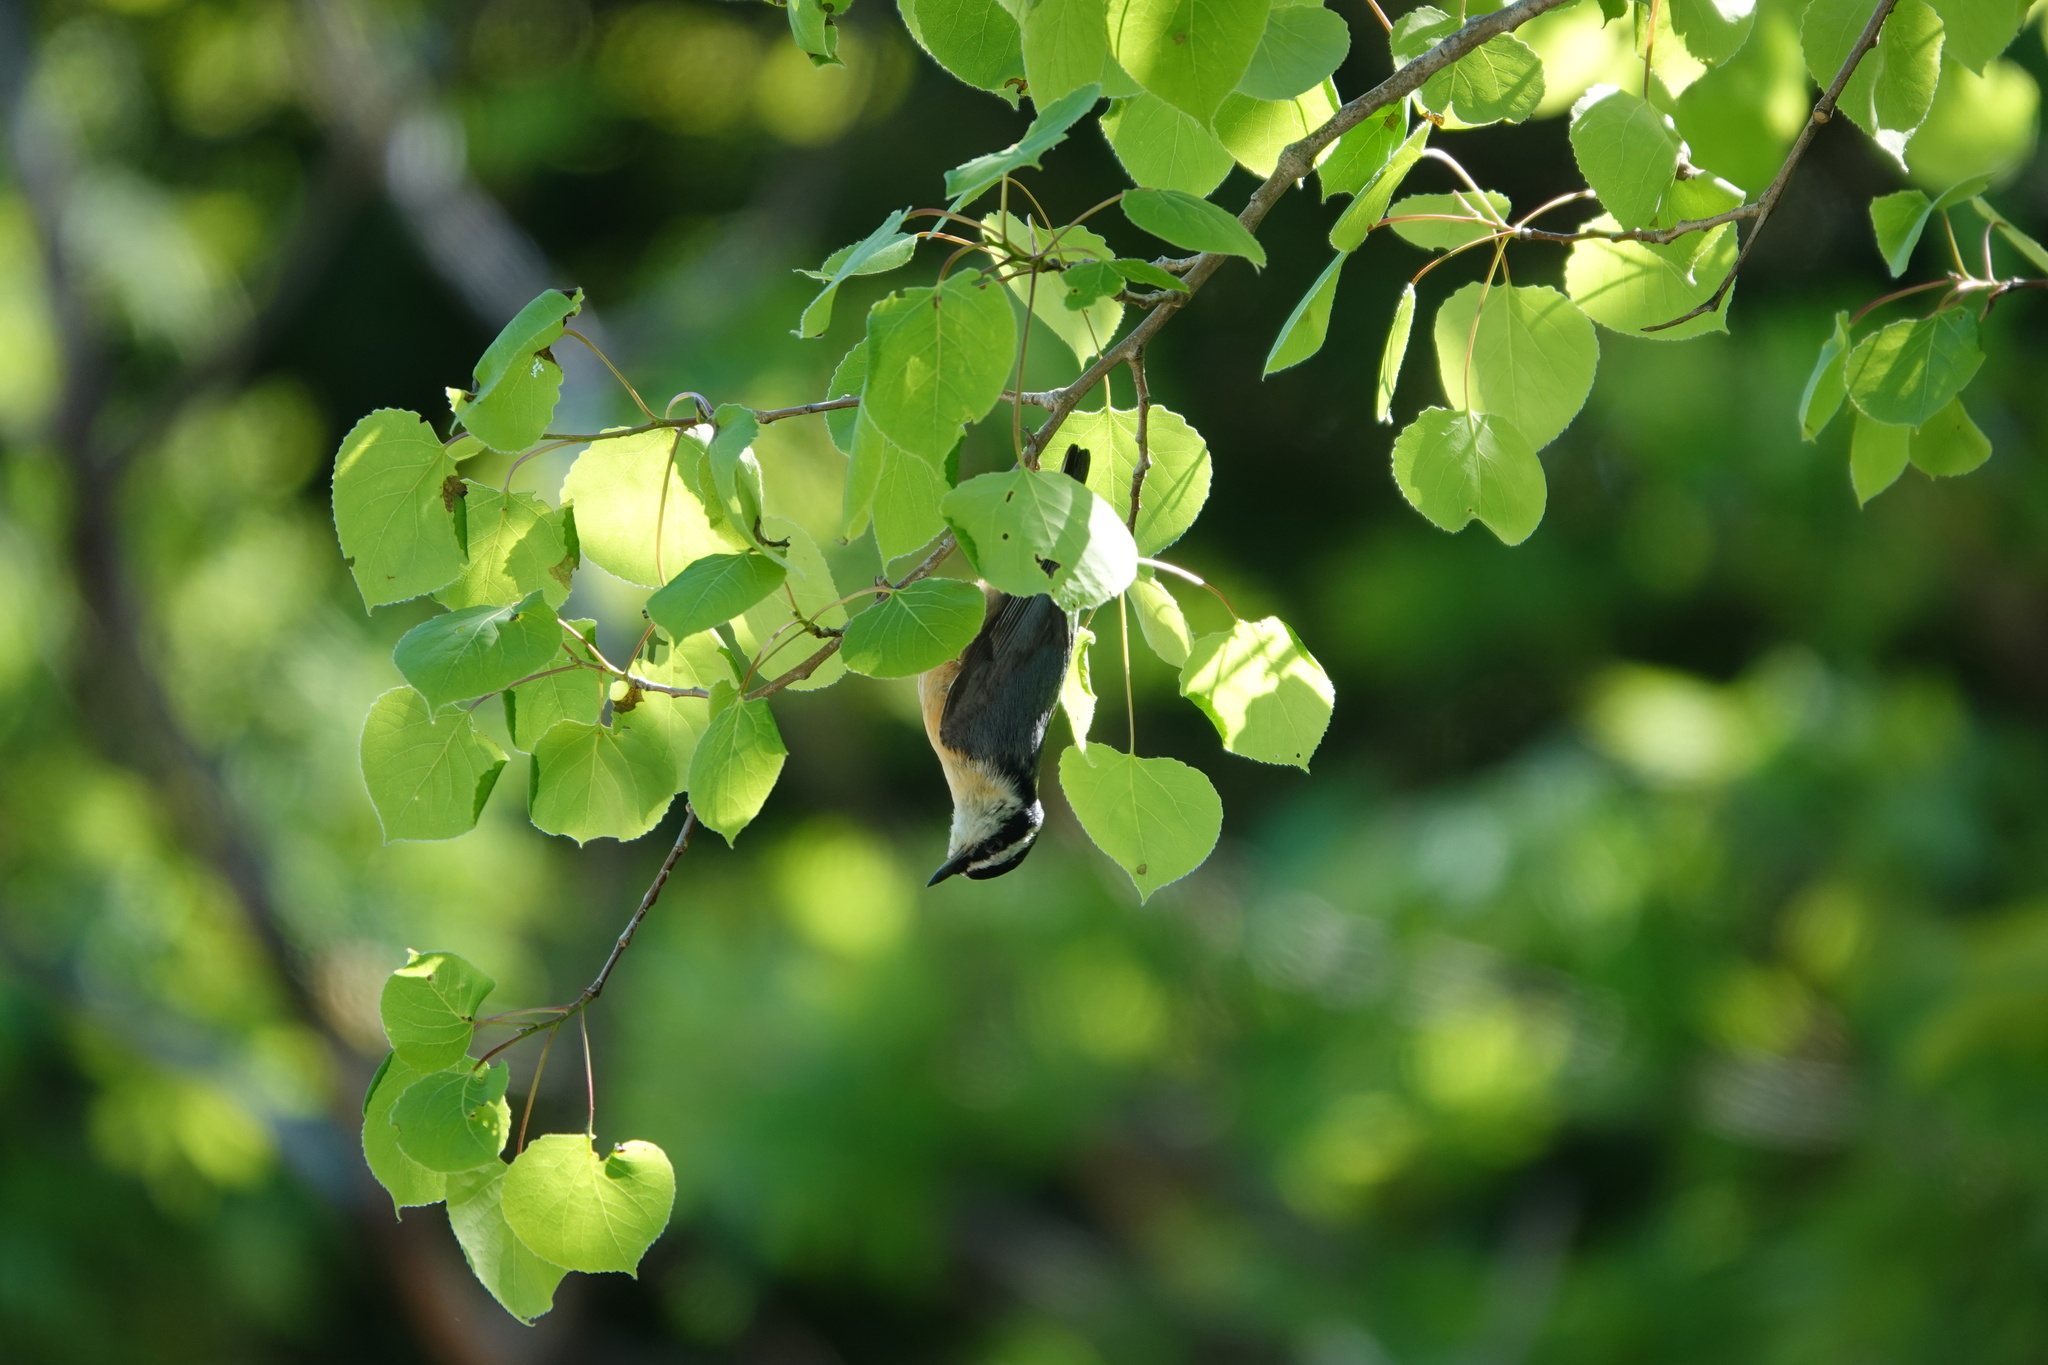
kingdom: Animalia
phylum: Chordata
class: Aves
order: Passeriformes
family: Sittidae
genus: Sitta
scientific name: Sitta canadensis
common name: Red-breasted nuthatch
